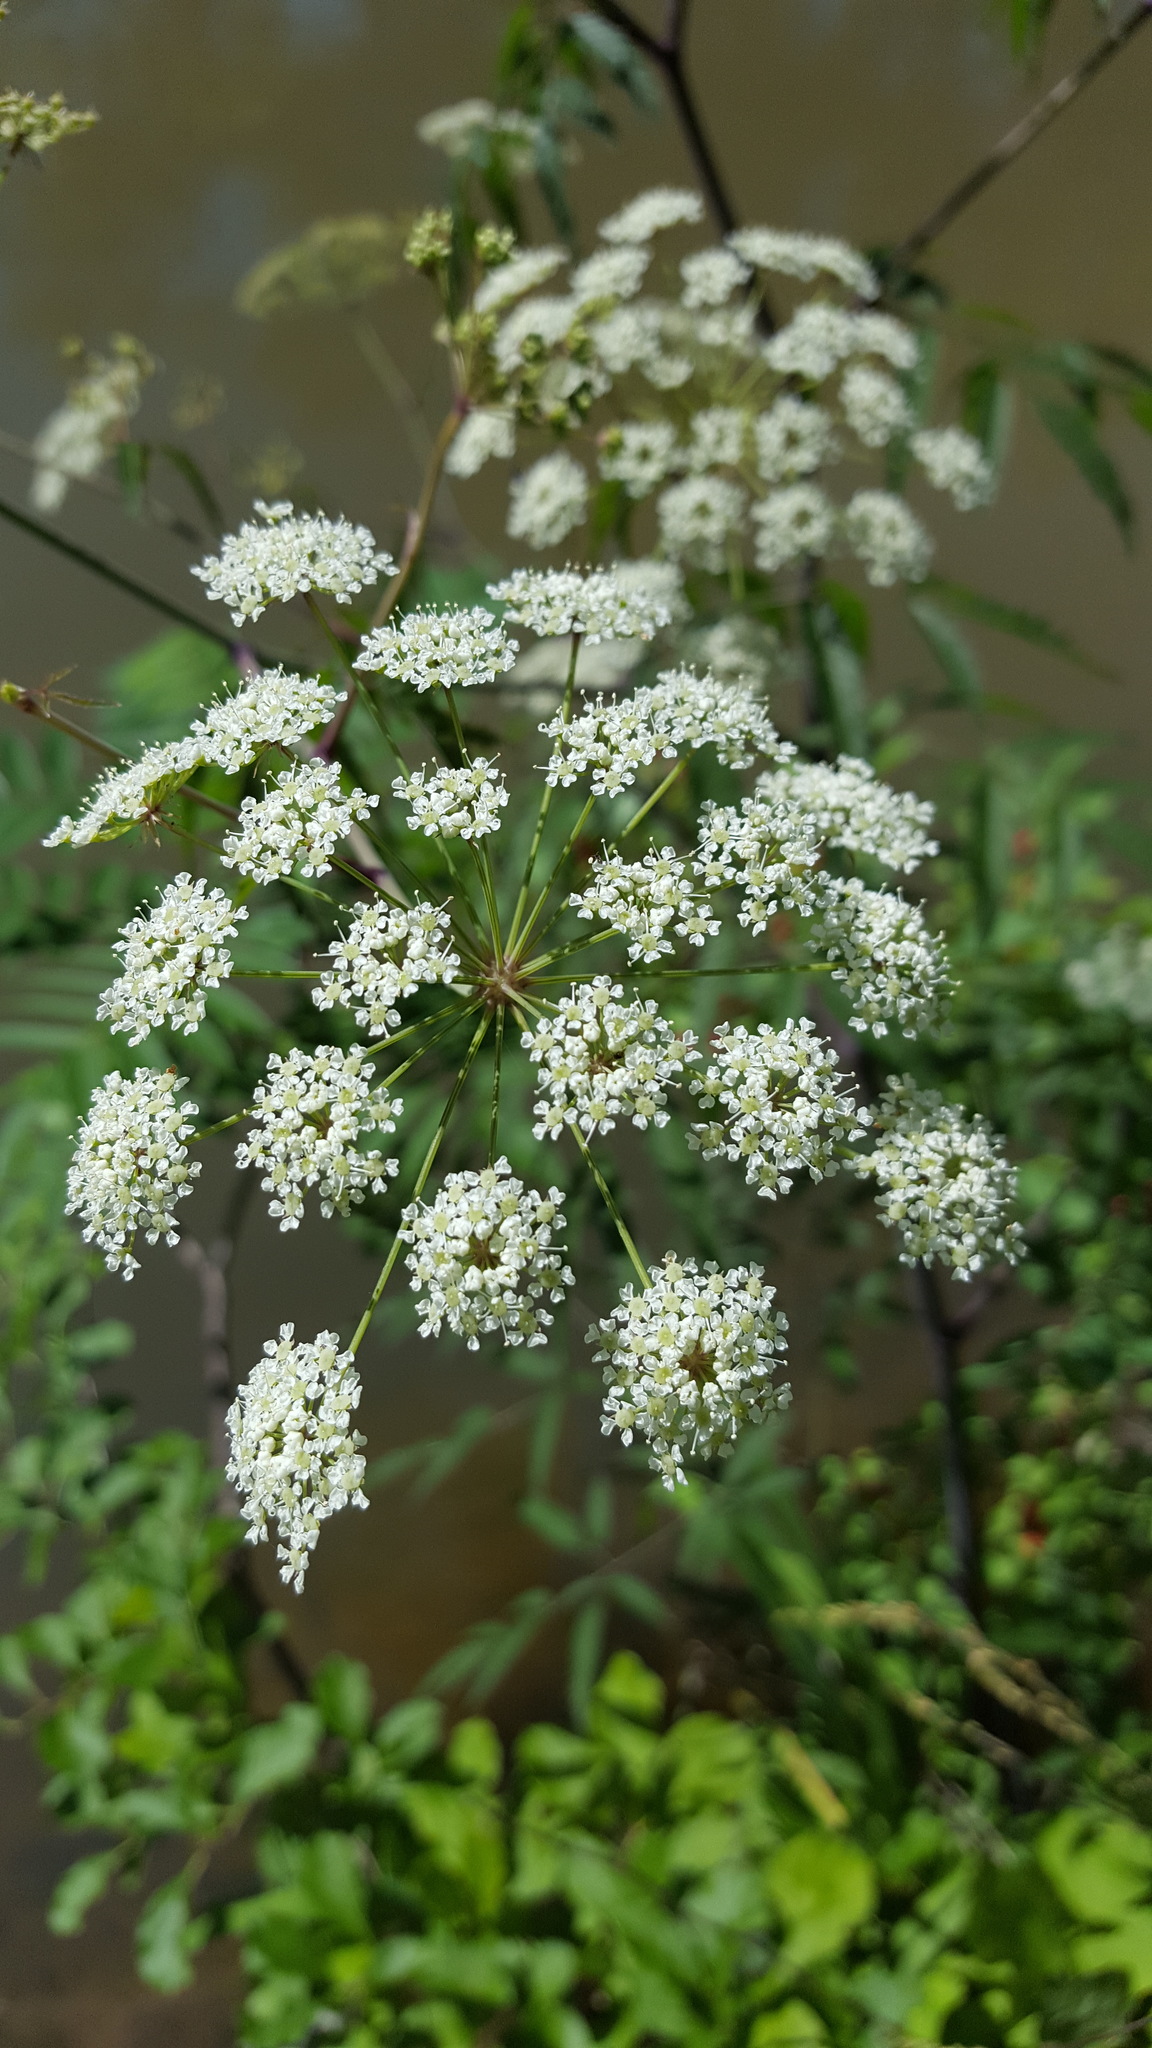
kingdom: Plantae
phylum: Tracheophyta
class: Magnoliopsida
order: Apiales
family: Apiaceae
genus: Cicuta
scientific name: Cicuta maculata
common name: Spotted cowbane
